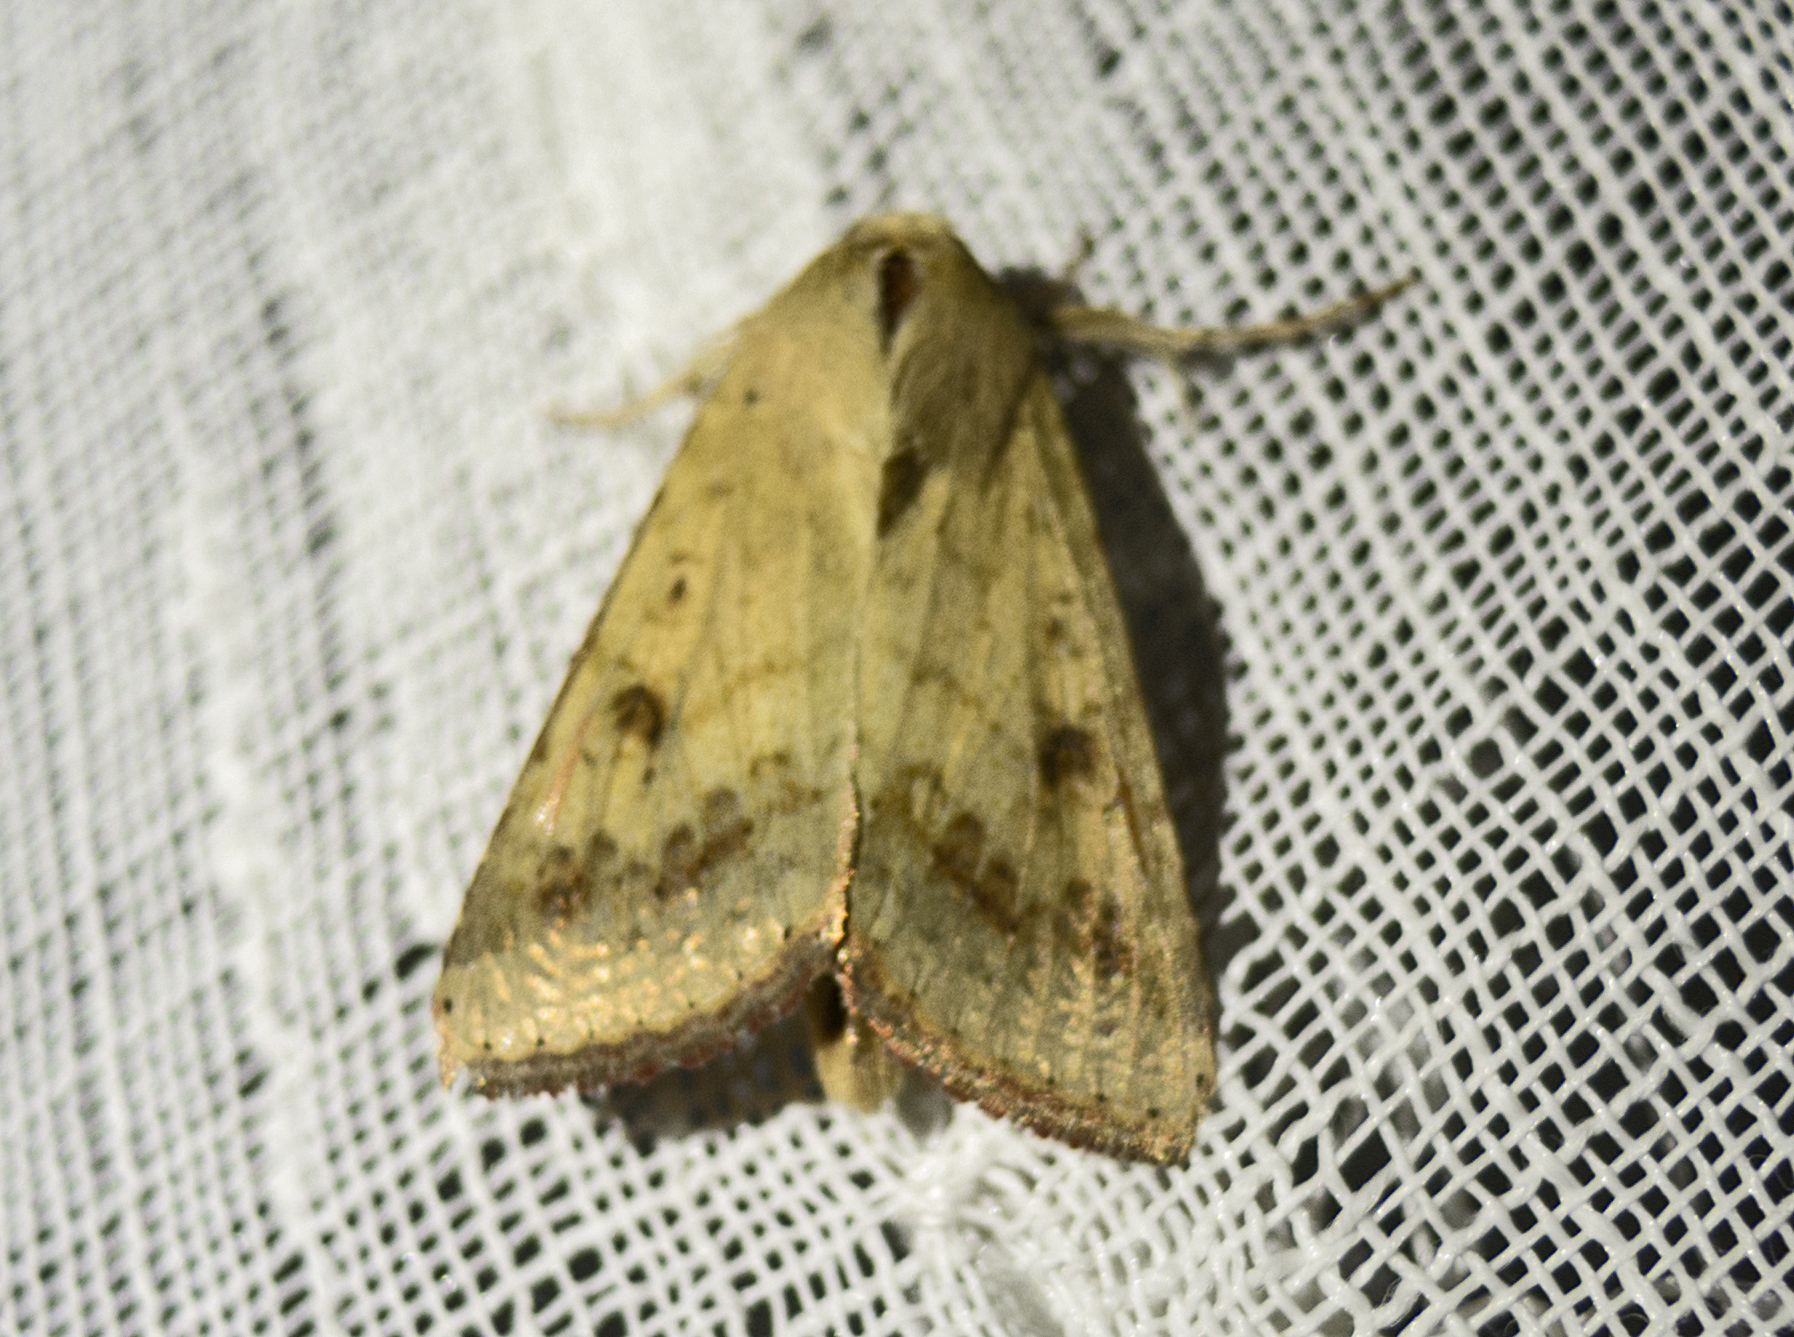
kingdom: Animalia
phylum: Arthropoda
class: Insecta
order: Lepidoptera
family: Noctuidae
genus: Helicoverpa
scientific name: Helicoverpa armigera
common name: Cotton bollworm
